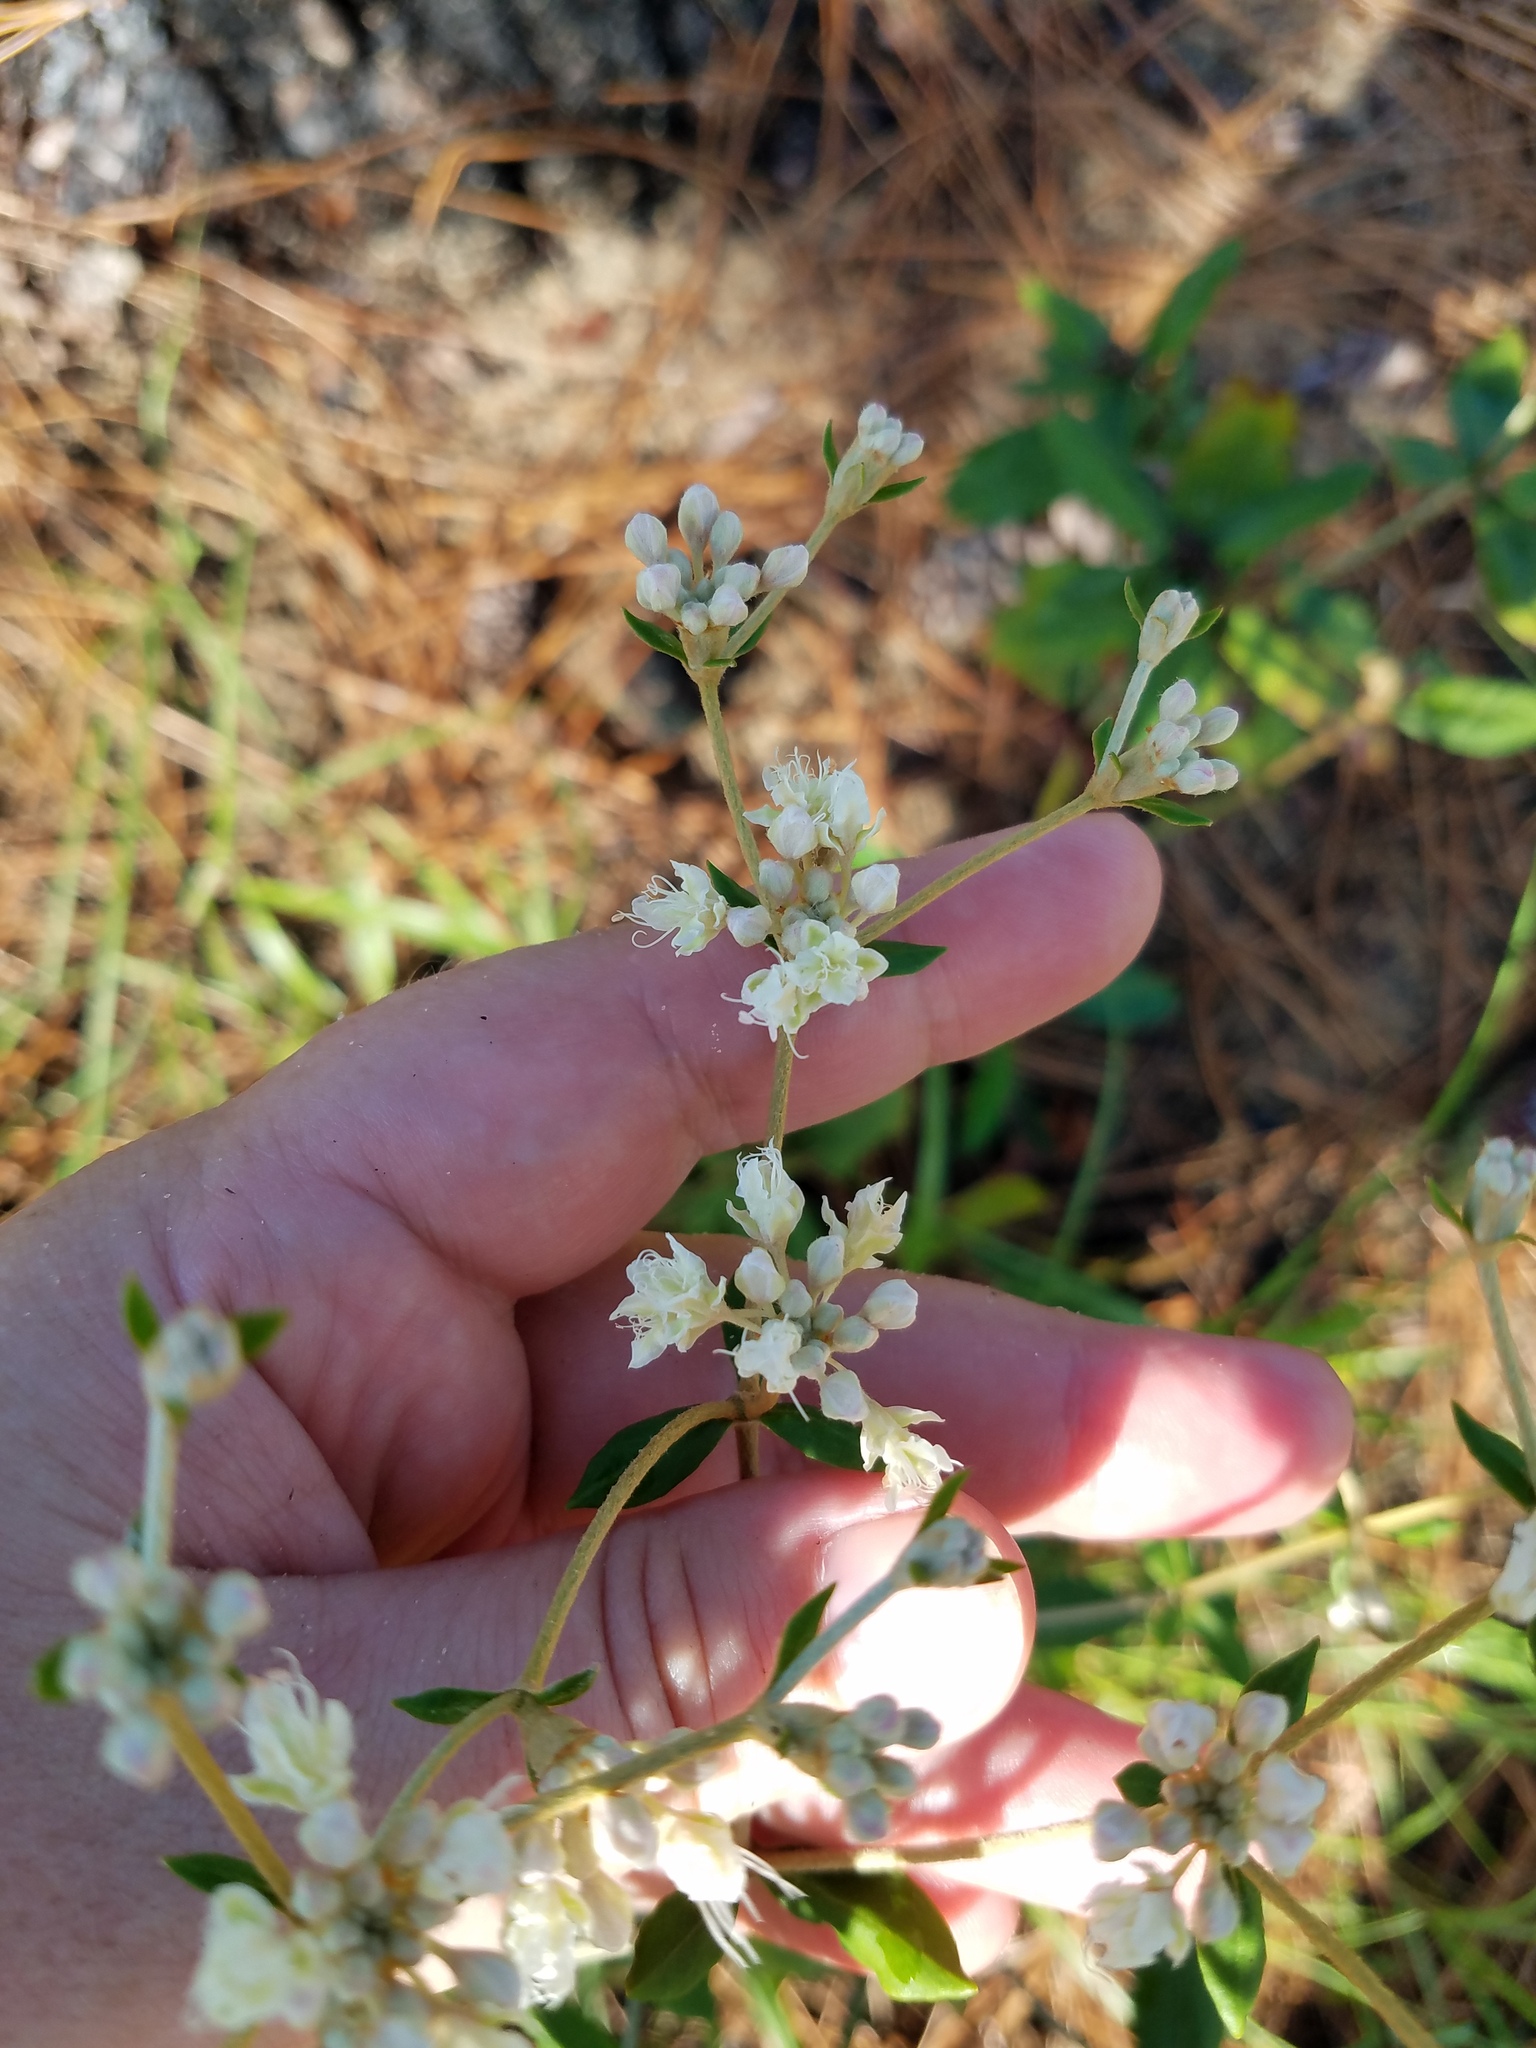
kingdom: Plantae
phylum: Tracheophyta
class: Magnoliopsida
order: Caryophyllales
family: Polygonaceae
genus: Eriogonum
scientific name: Eriogonum tomentosum
